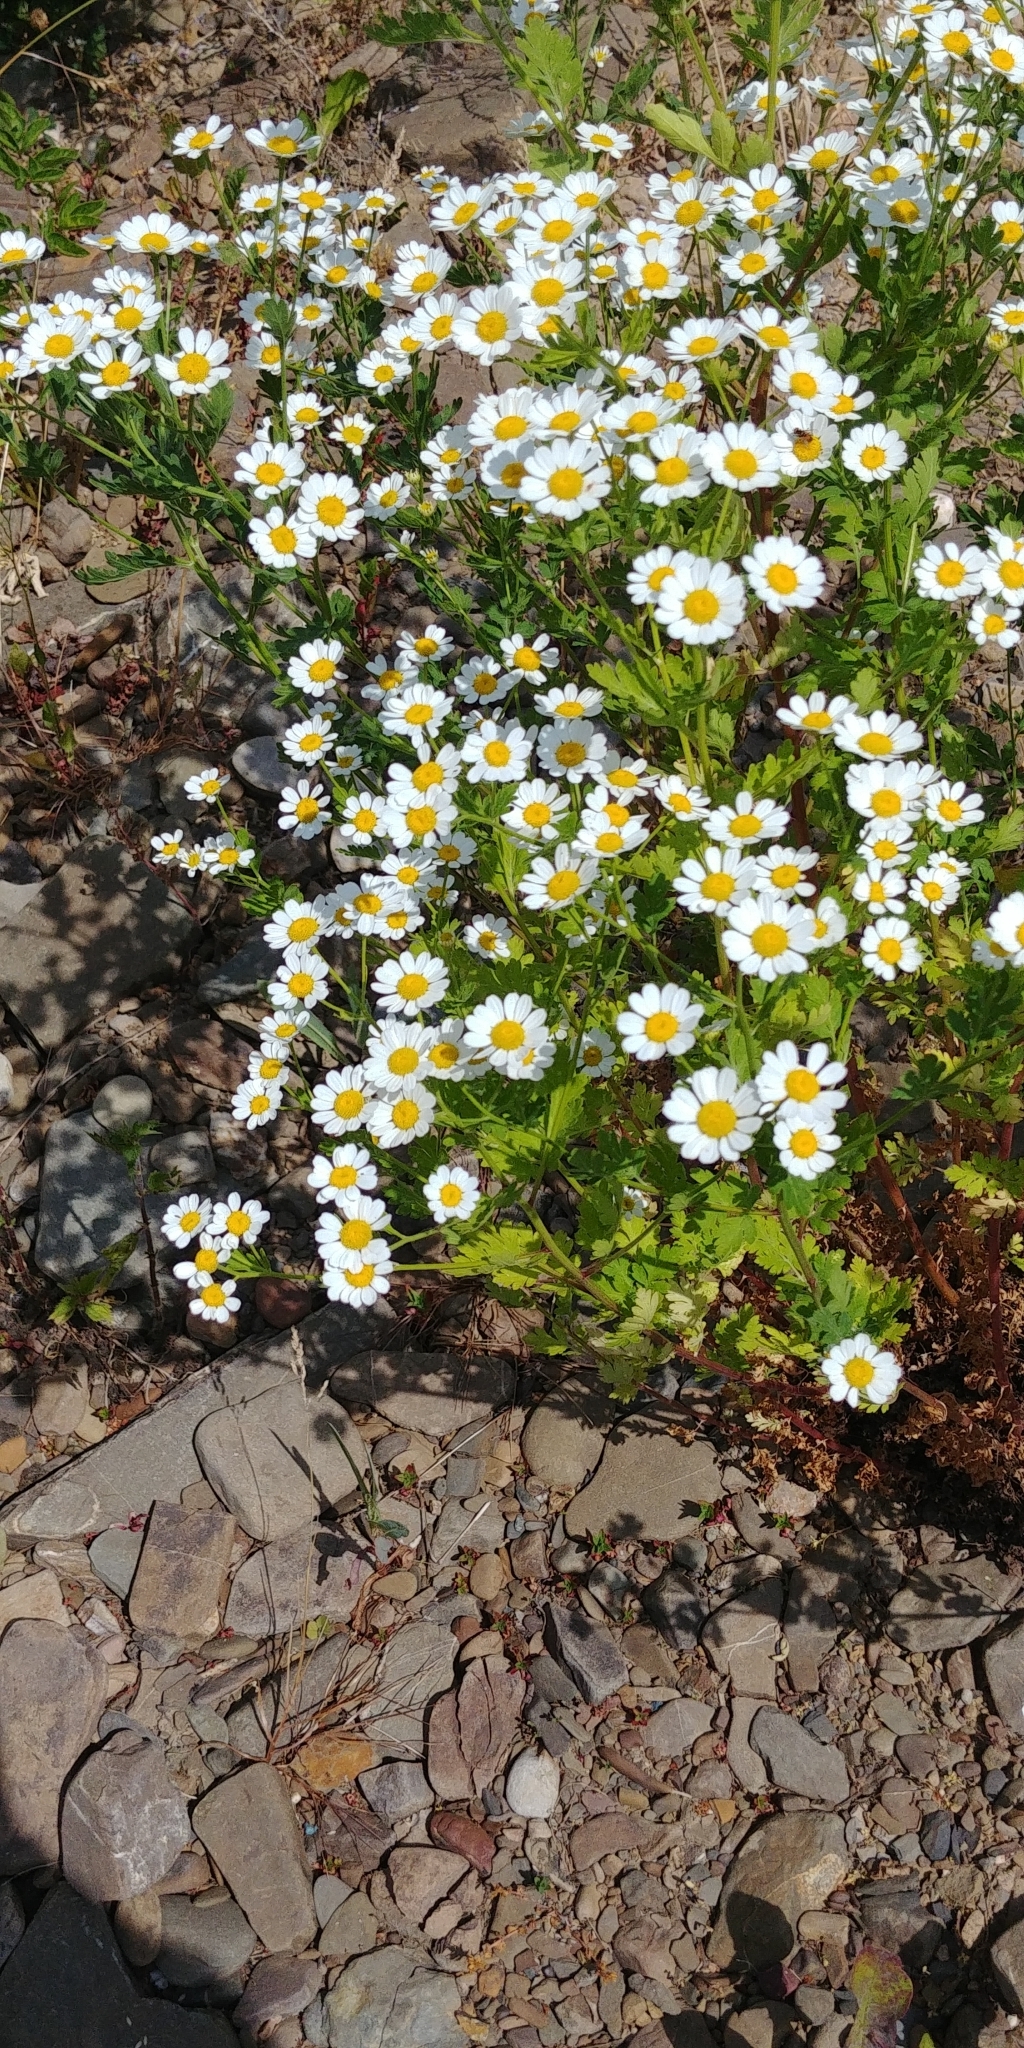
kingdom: Plantae
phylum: Tracheophyta
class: Magnoliopsida
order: Asterales
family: Asteraceae
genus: Tanacetum
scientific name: Tanacetum parthenium
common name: Feverfew
